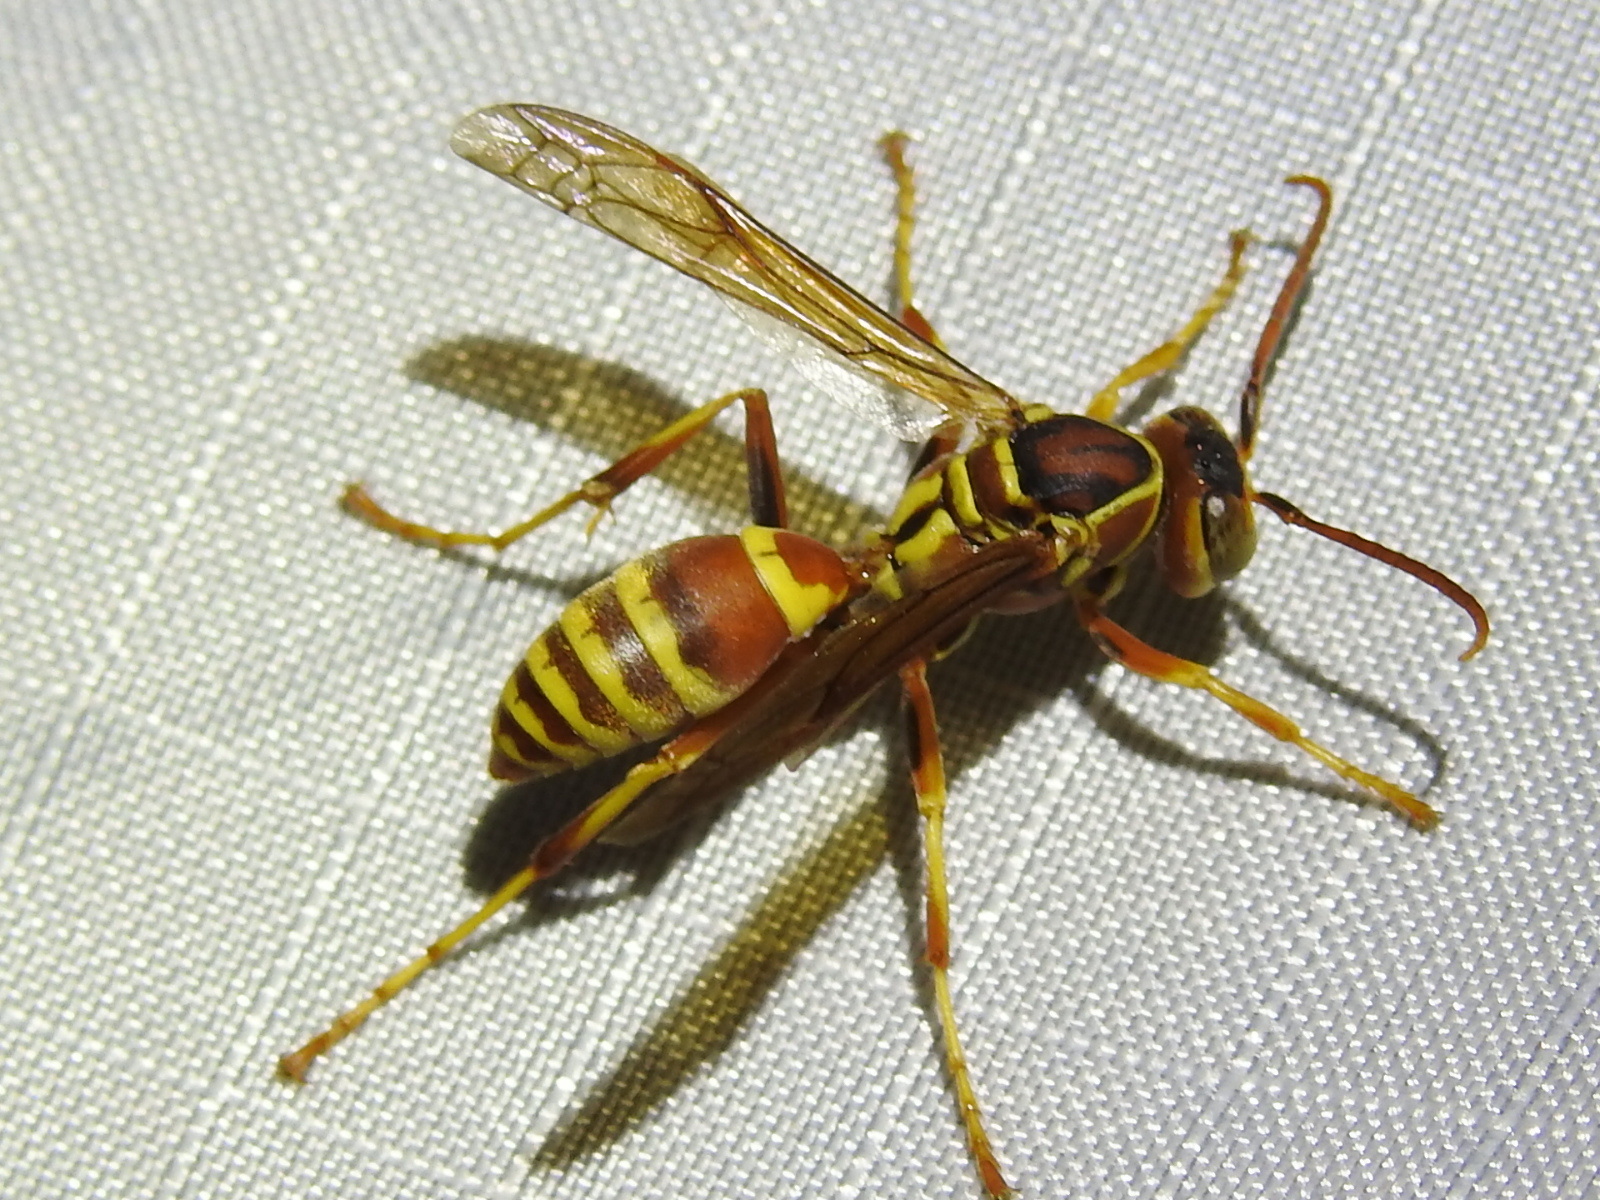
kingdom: Animalia
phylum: Arthropoda
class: Insecta
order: Hymenoptera
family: Eumenidae
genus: Polistes
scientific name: Polistes dorsalis
